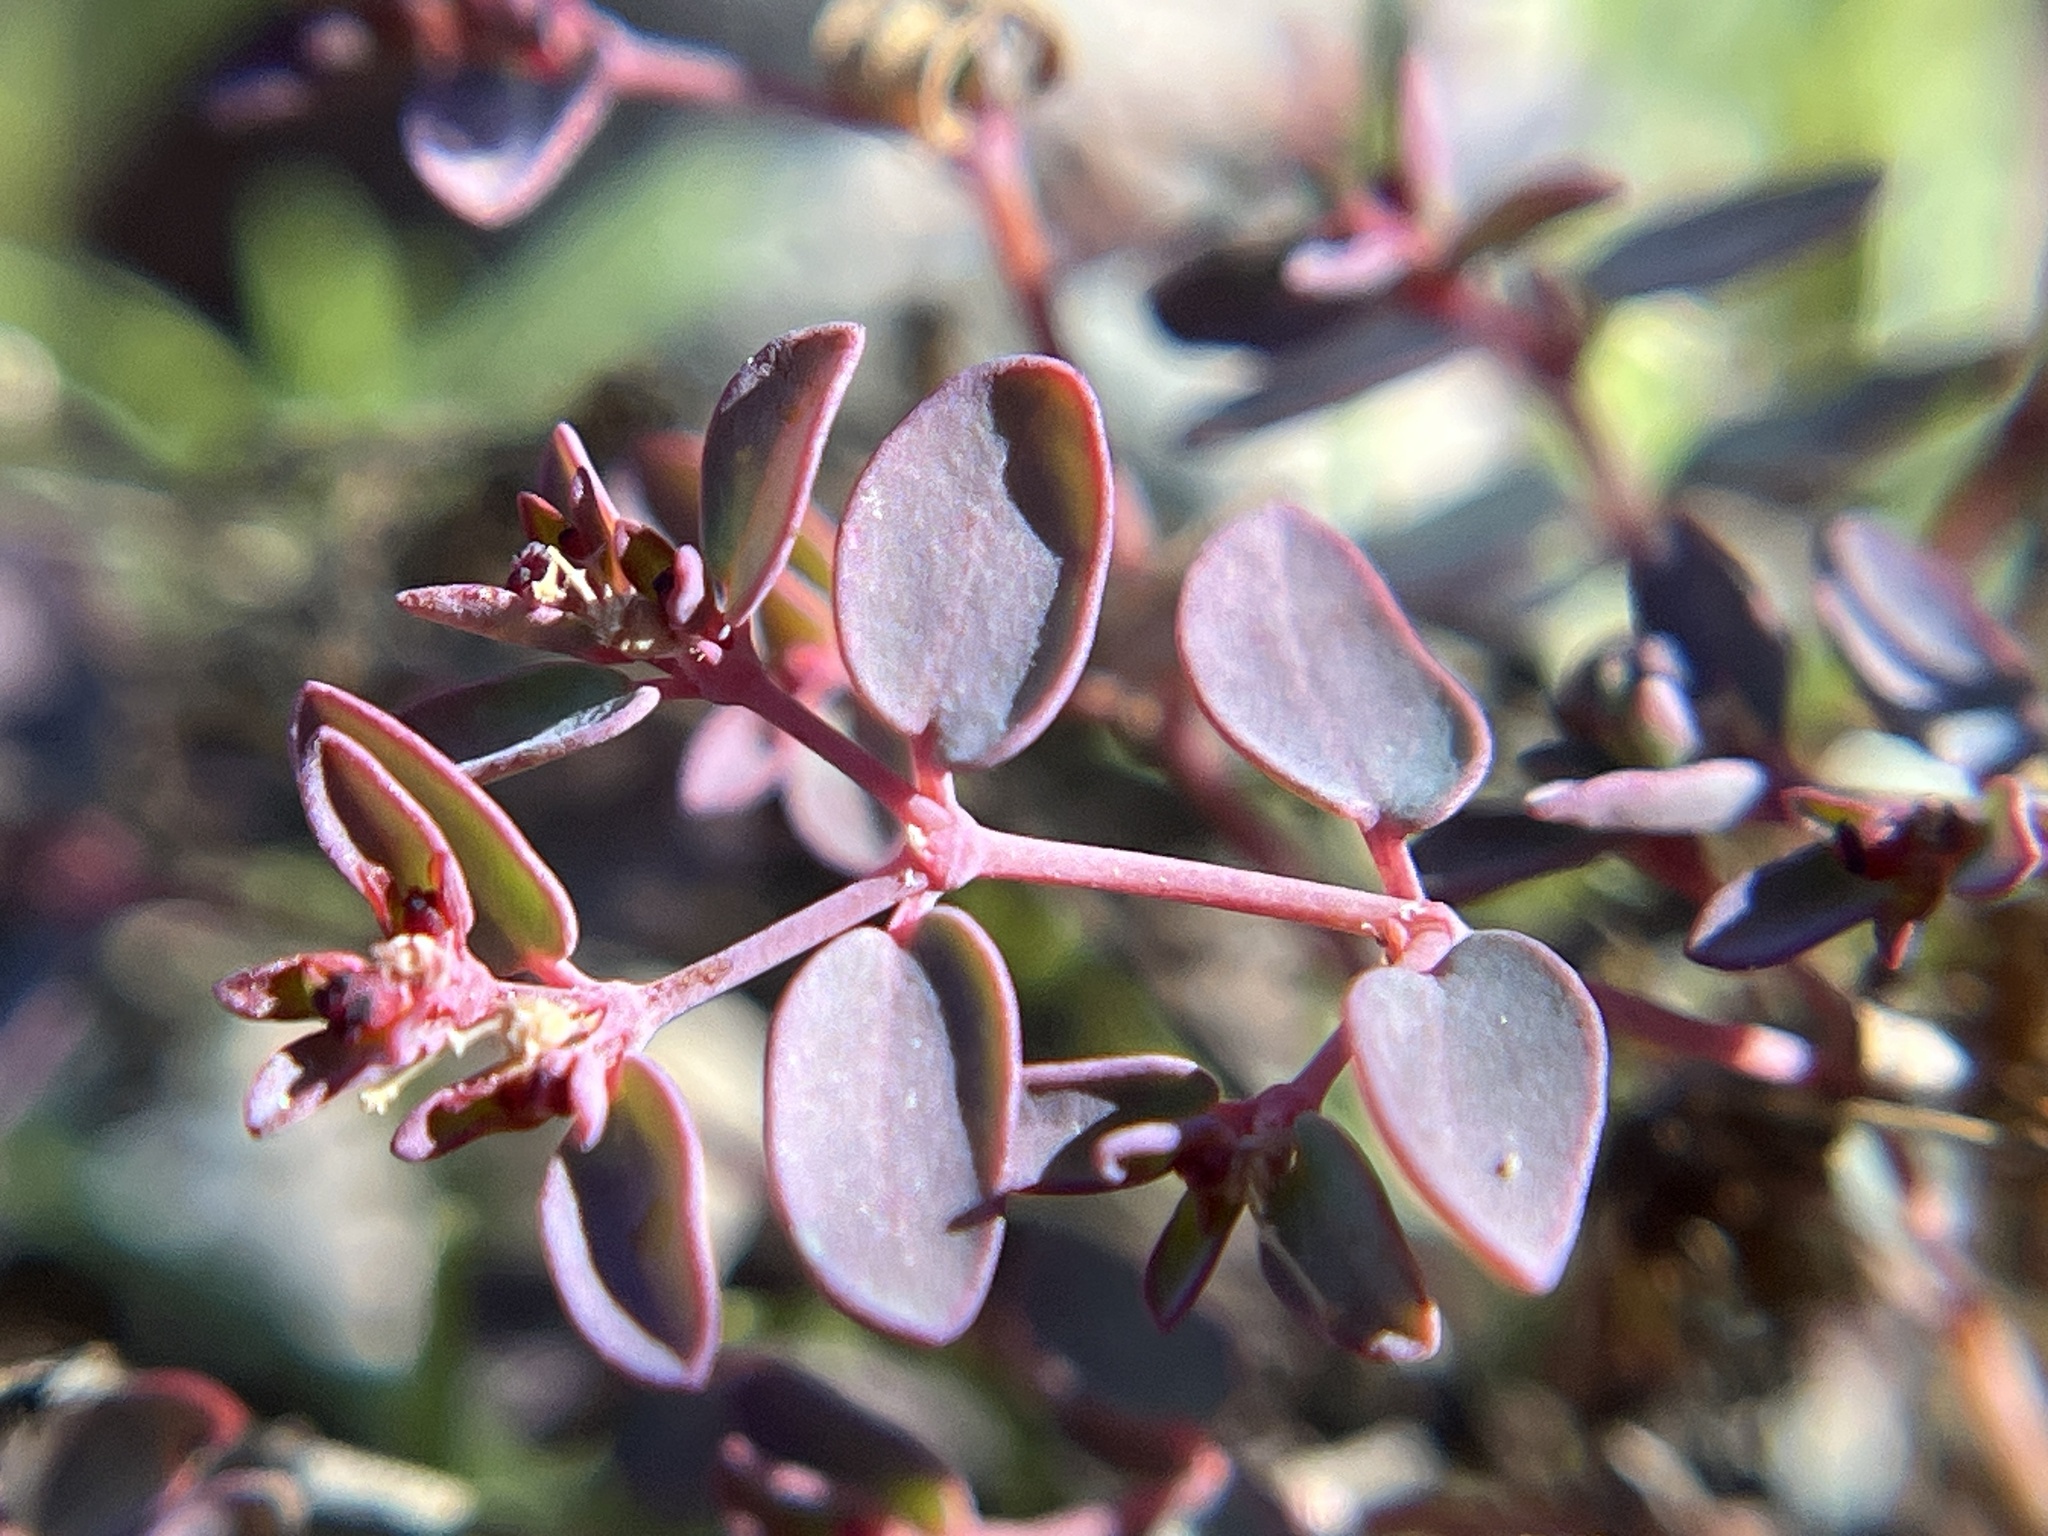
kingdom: Plantae
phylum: Tracheophyta
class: Magnoliopsida
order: Malpighiales
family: Euphorbiaceae
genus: Euphorbia
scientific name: Euphorbia polycarpa
